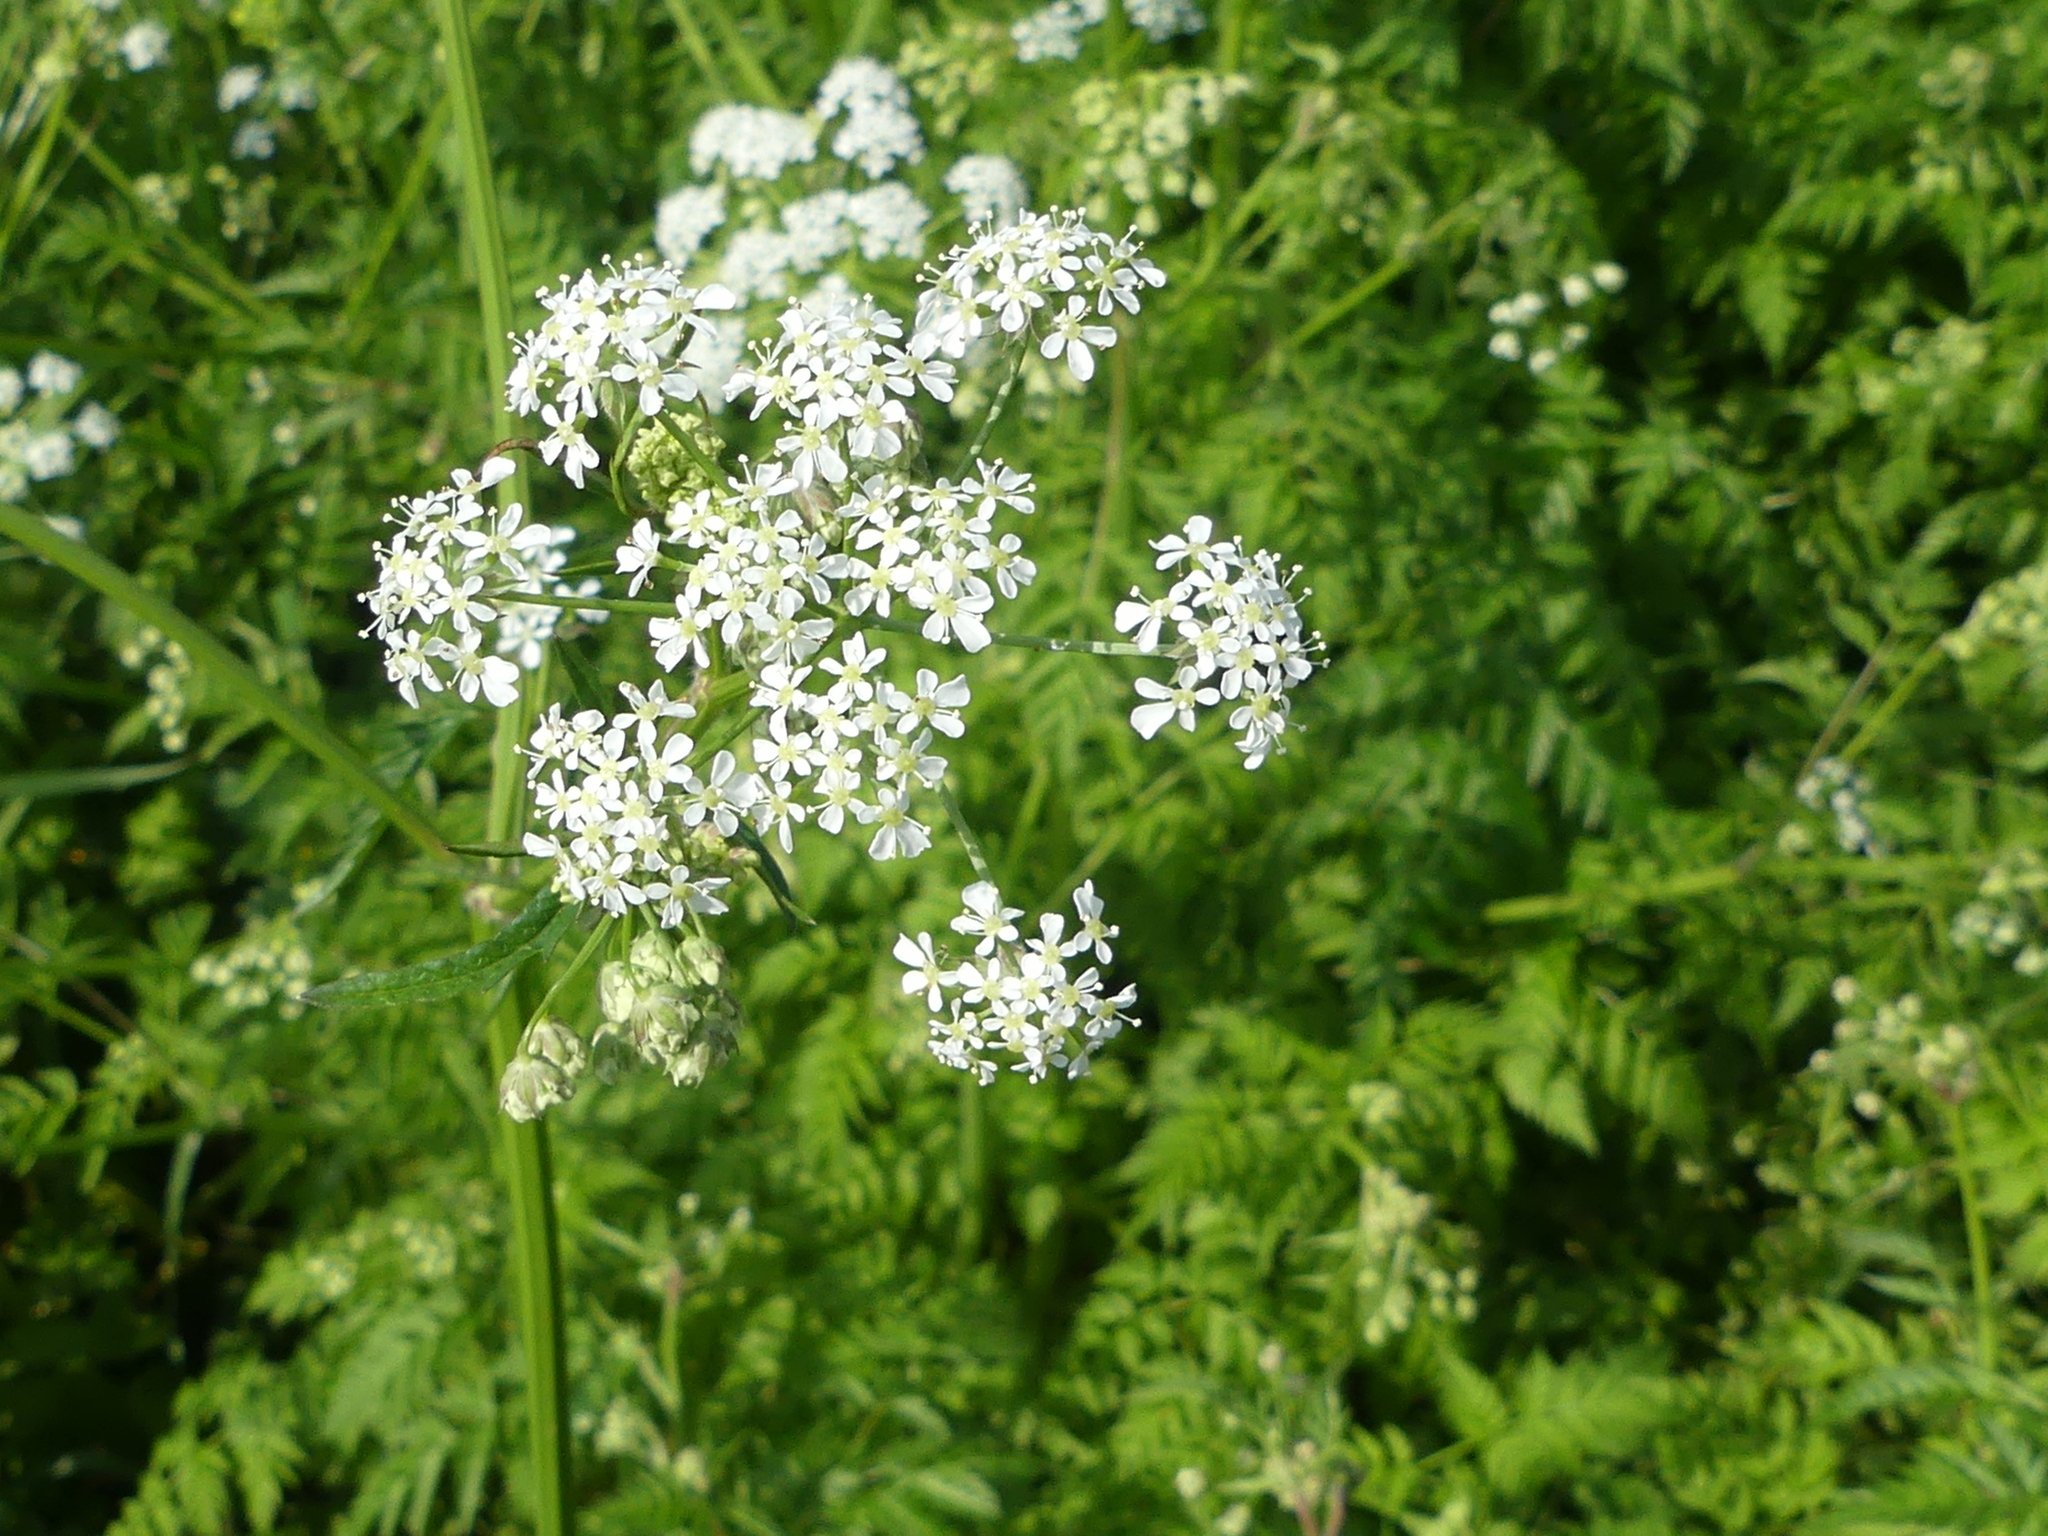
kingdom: Plantae
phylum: Tracheophyta
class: Magnoliopsida
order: Apiales
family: Apiaceae
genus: Anthriscus
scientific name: Anthriscus sylvestris
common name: Cow parsley
